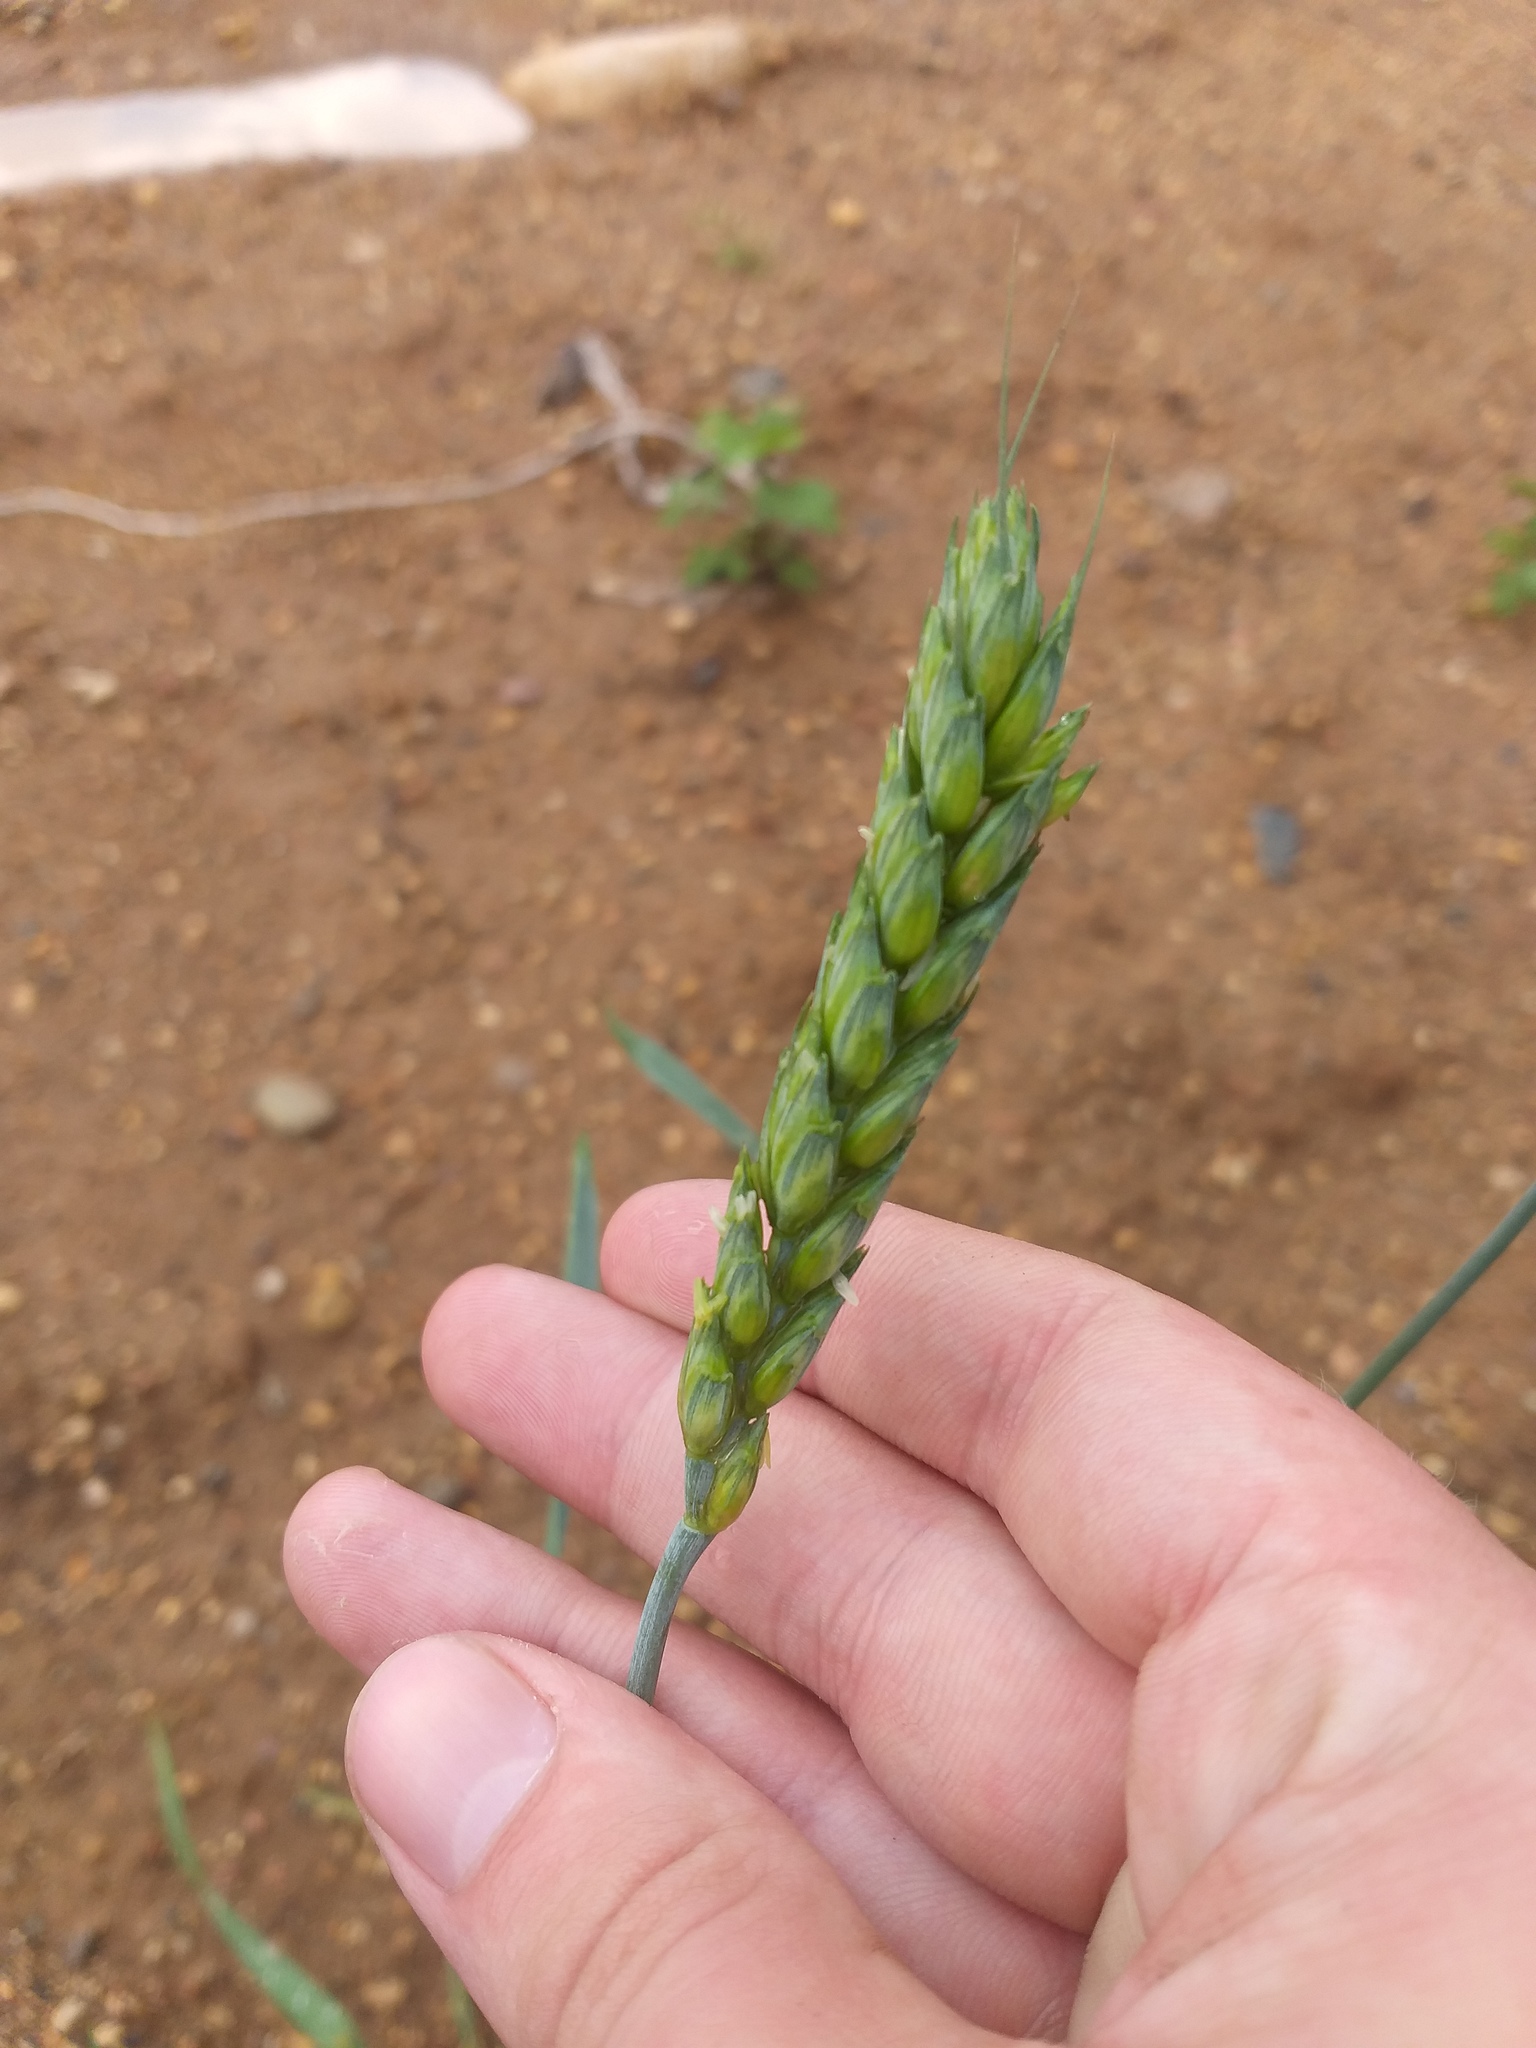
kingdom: Plantae
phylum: Tracheophyta
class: Liliopsida
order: Poales
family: Poaceae
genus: Triticum
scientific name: Triticum aestivum
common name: Common wheat
